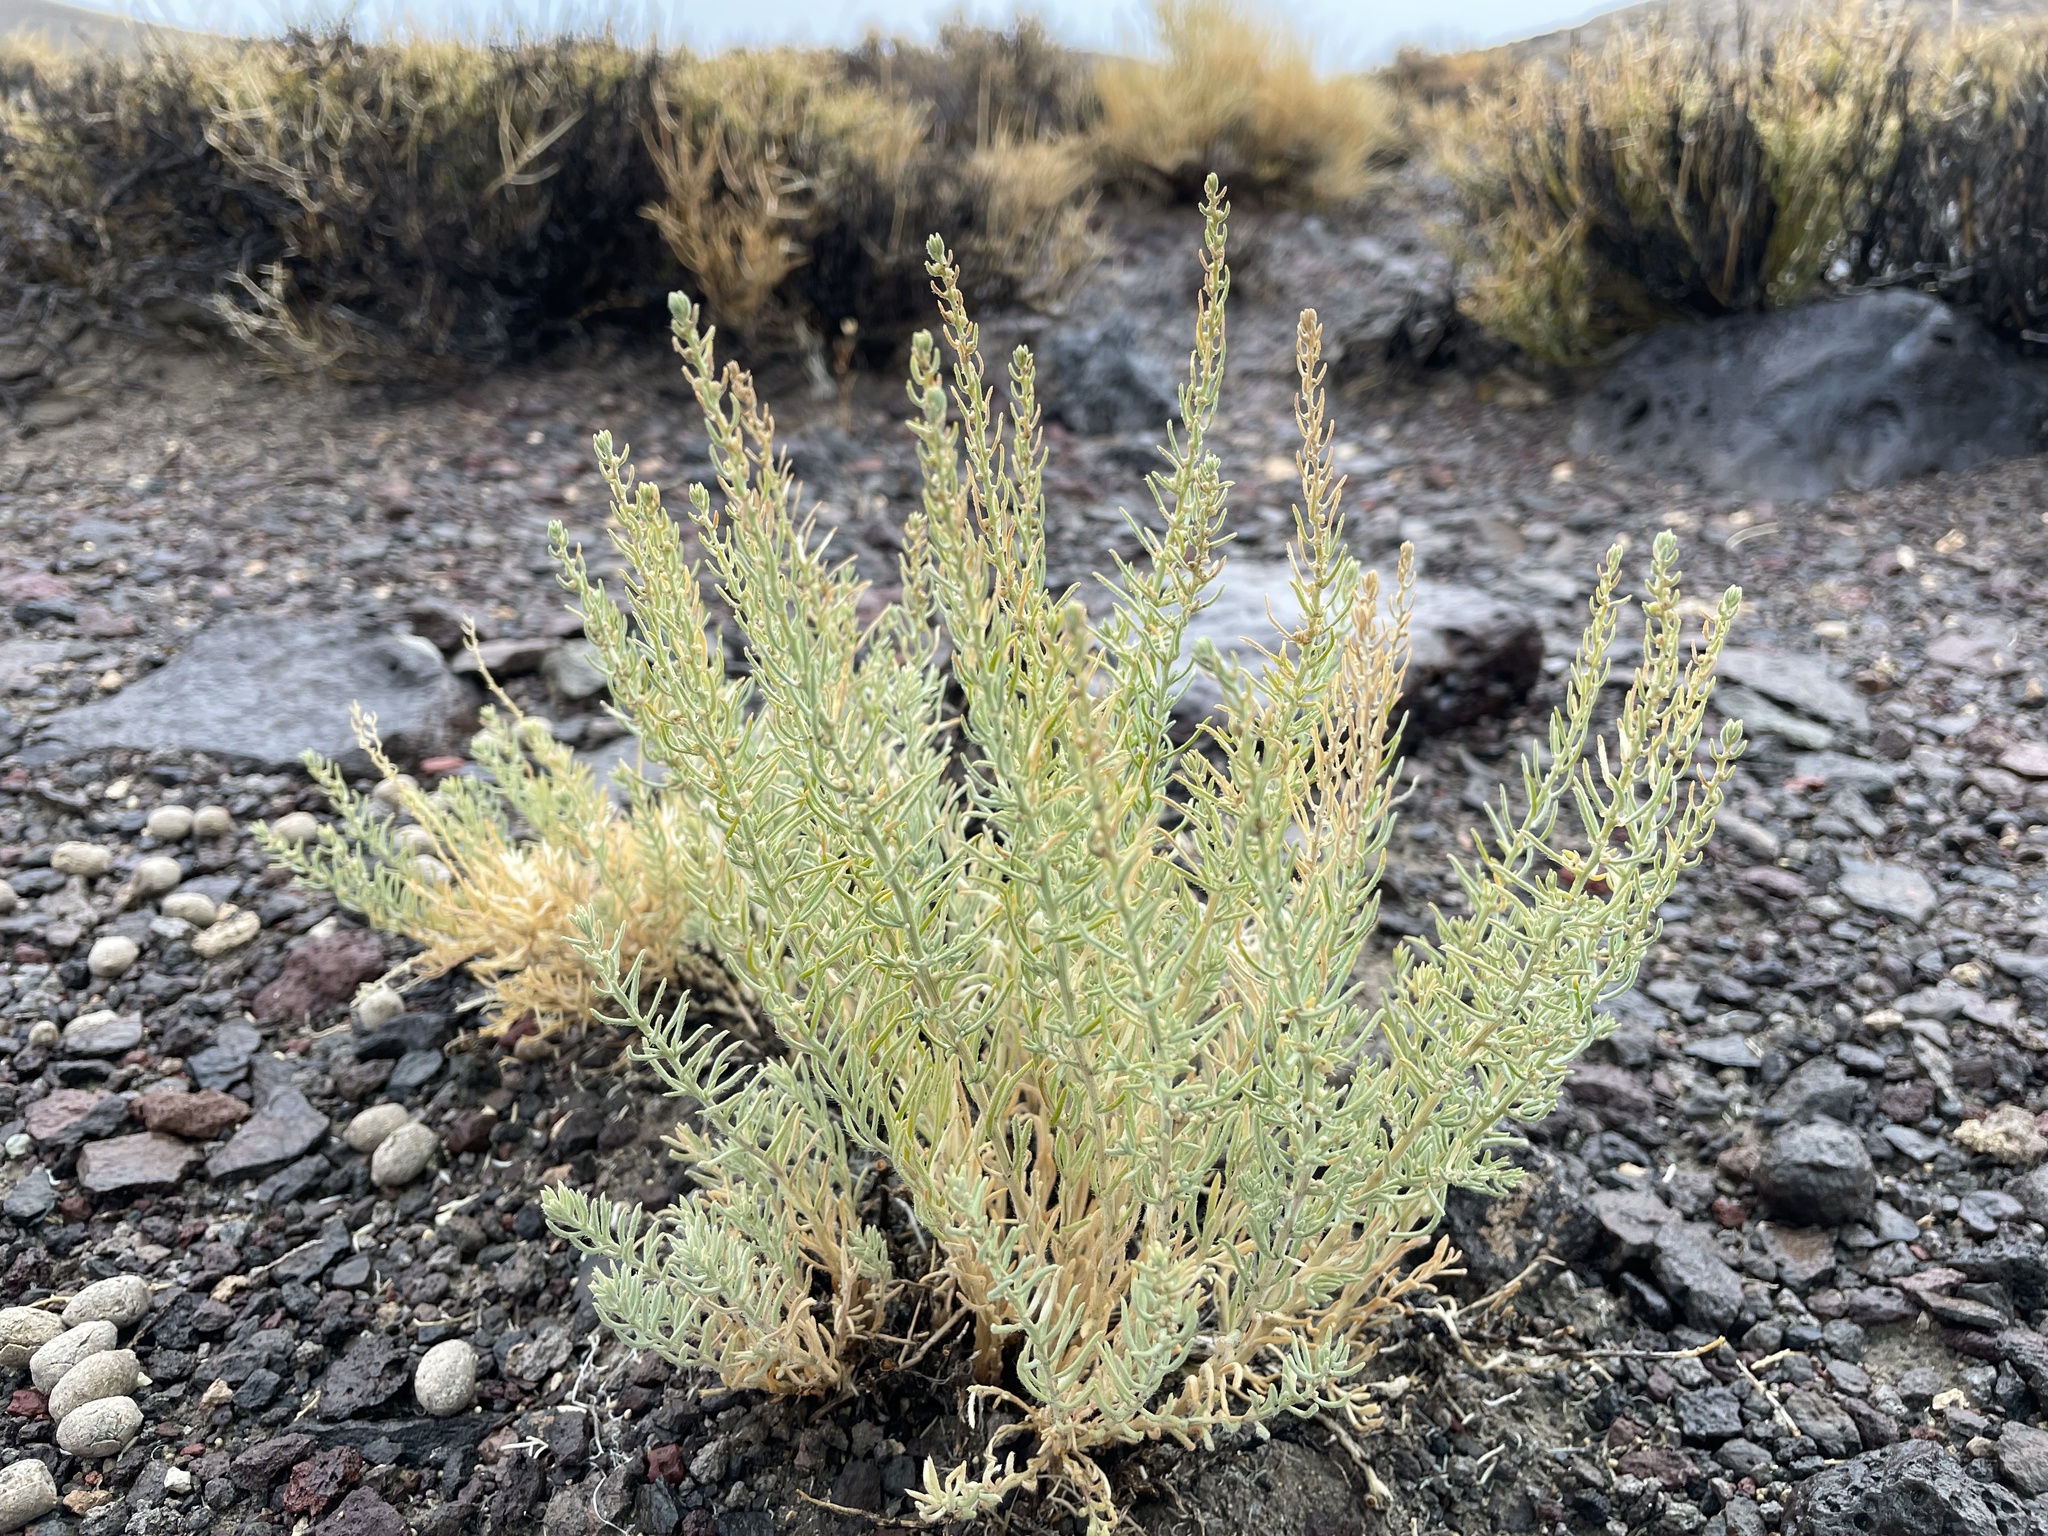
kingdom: Plantae
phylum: Tracheophyta
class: Magnoliopsida
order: Caryophyllales
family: Amaranthaceae
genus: Neokochia
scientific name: Neokochia americana
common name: Perennial summer-cypress
